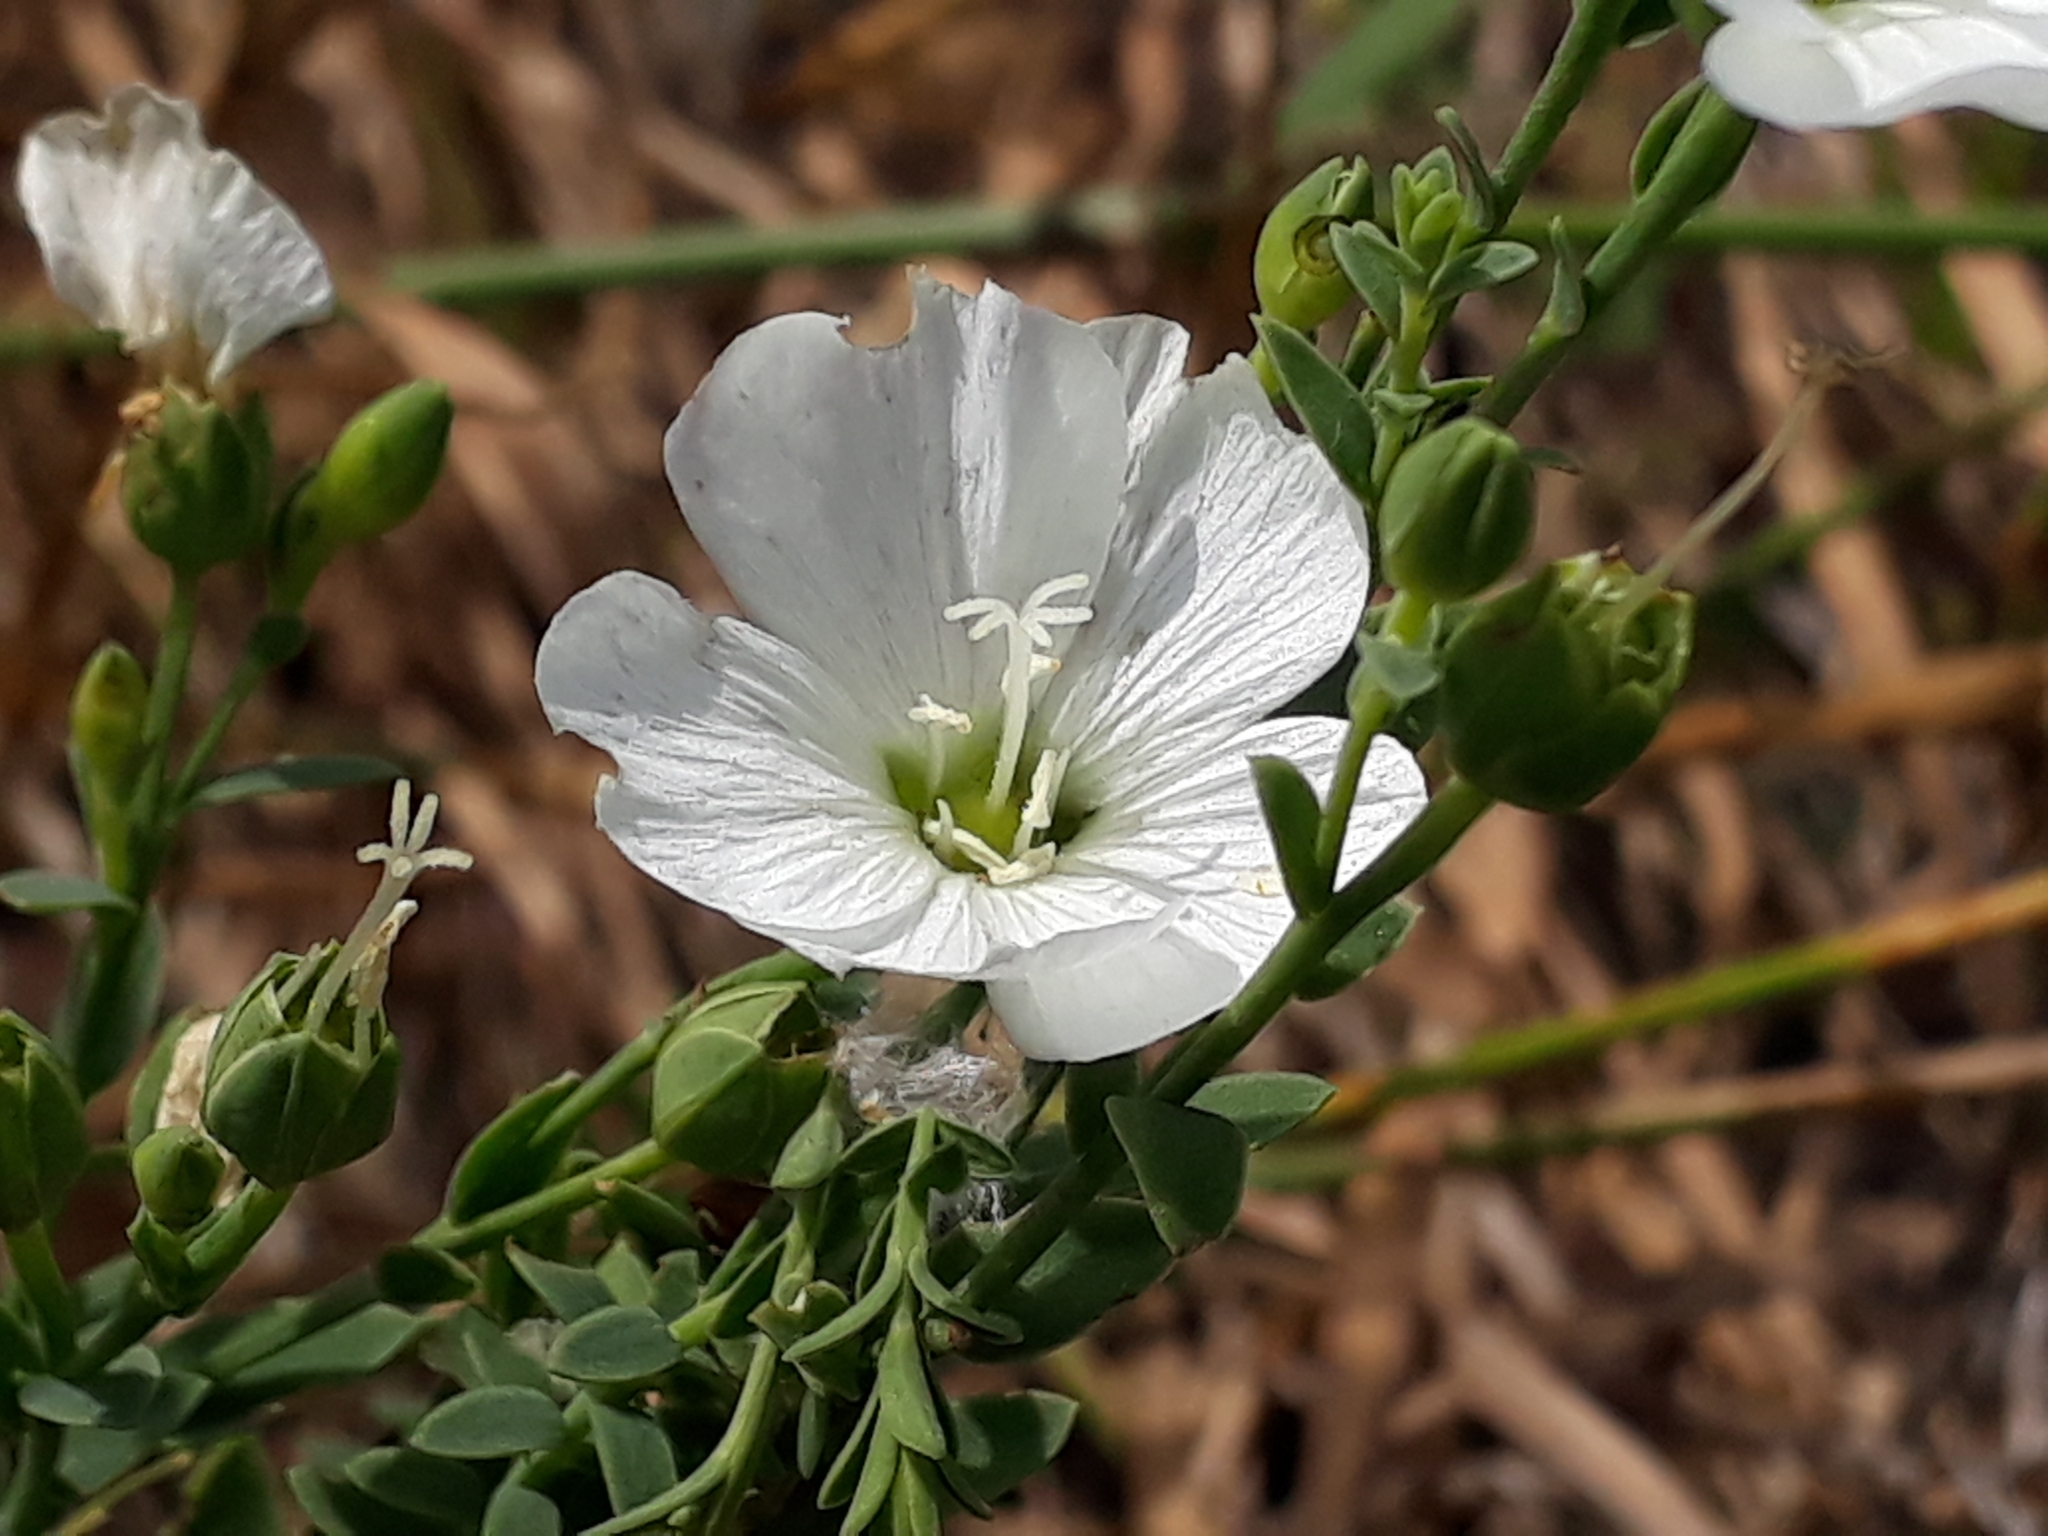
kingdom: Plantae
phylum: Tracheophyta
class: Magnoliopsida
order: Malpighiales
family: Linaceae
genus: Linum
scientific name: Linum monogynum
